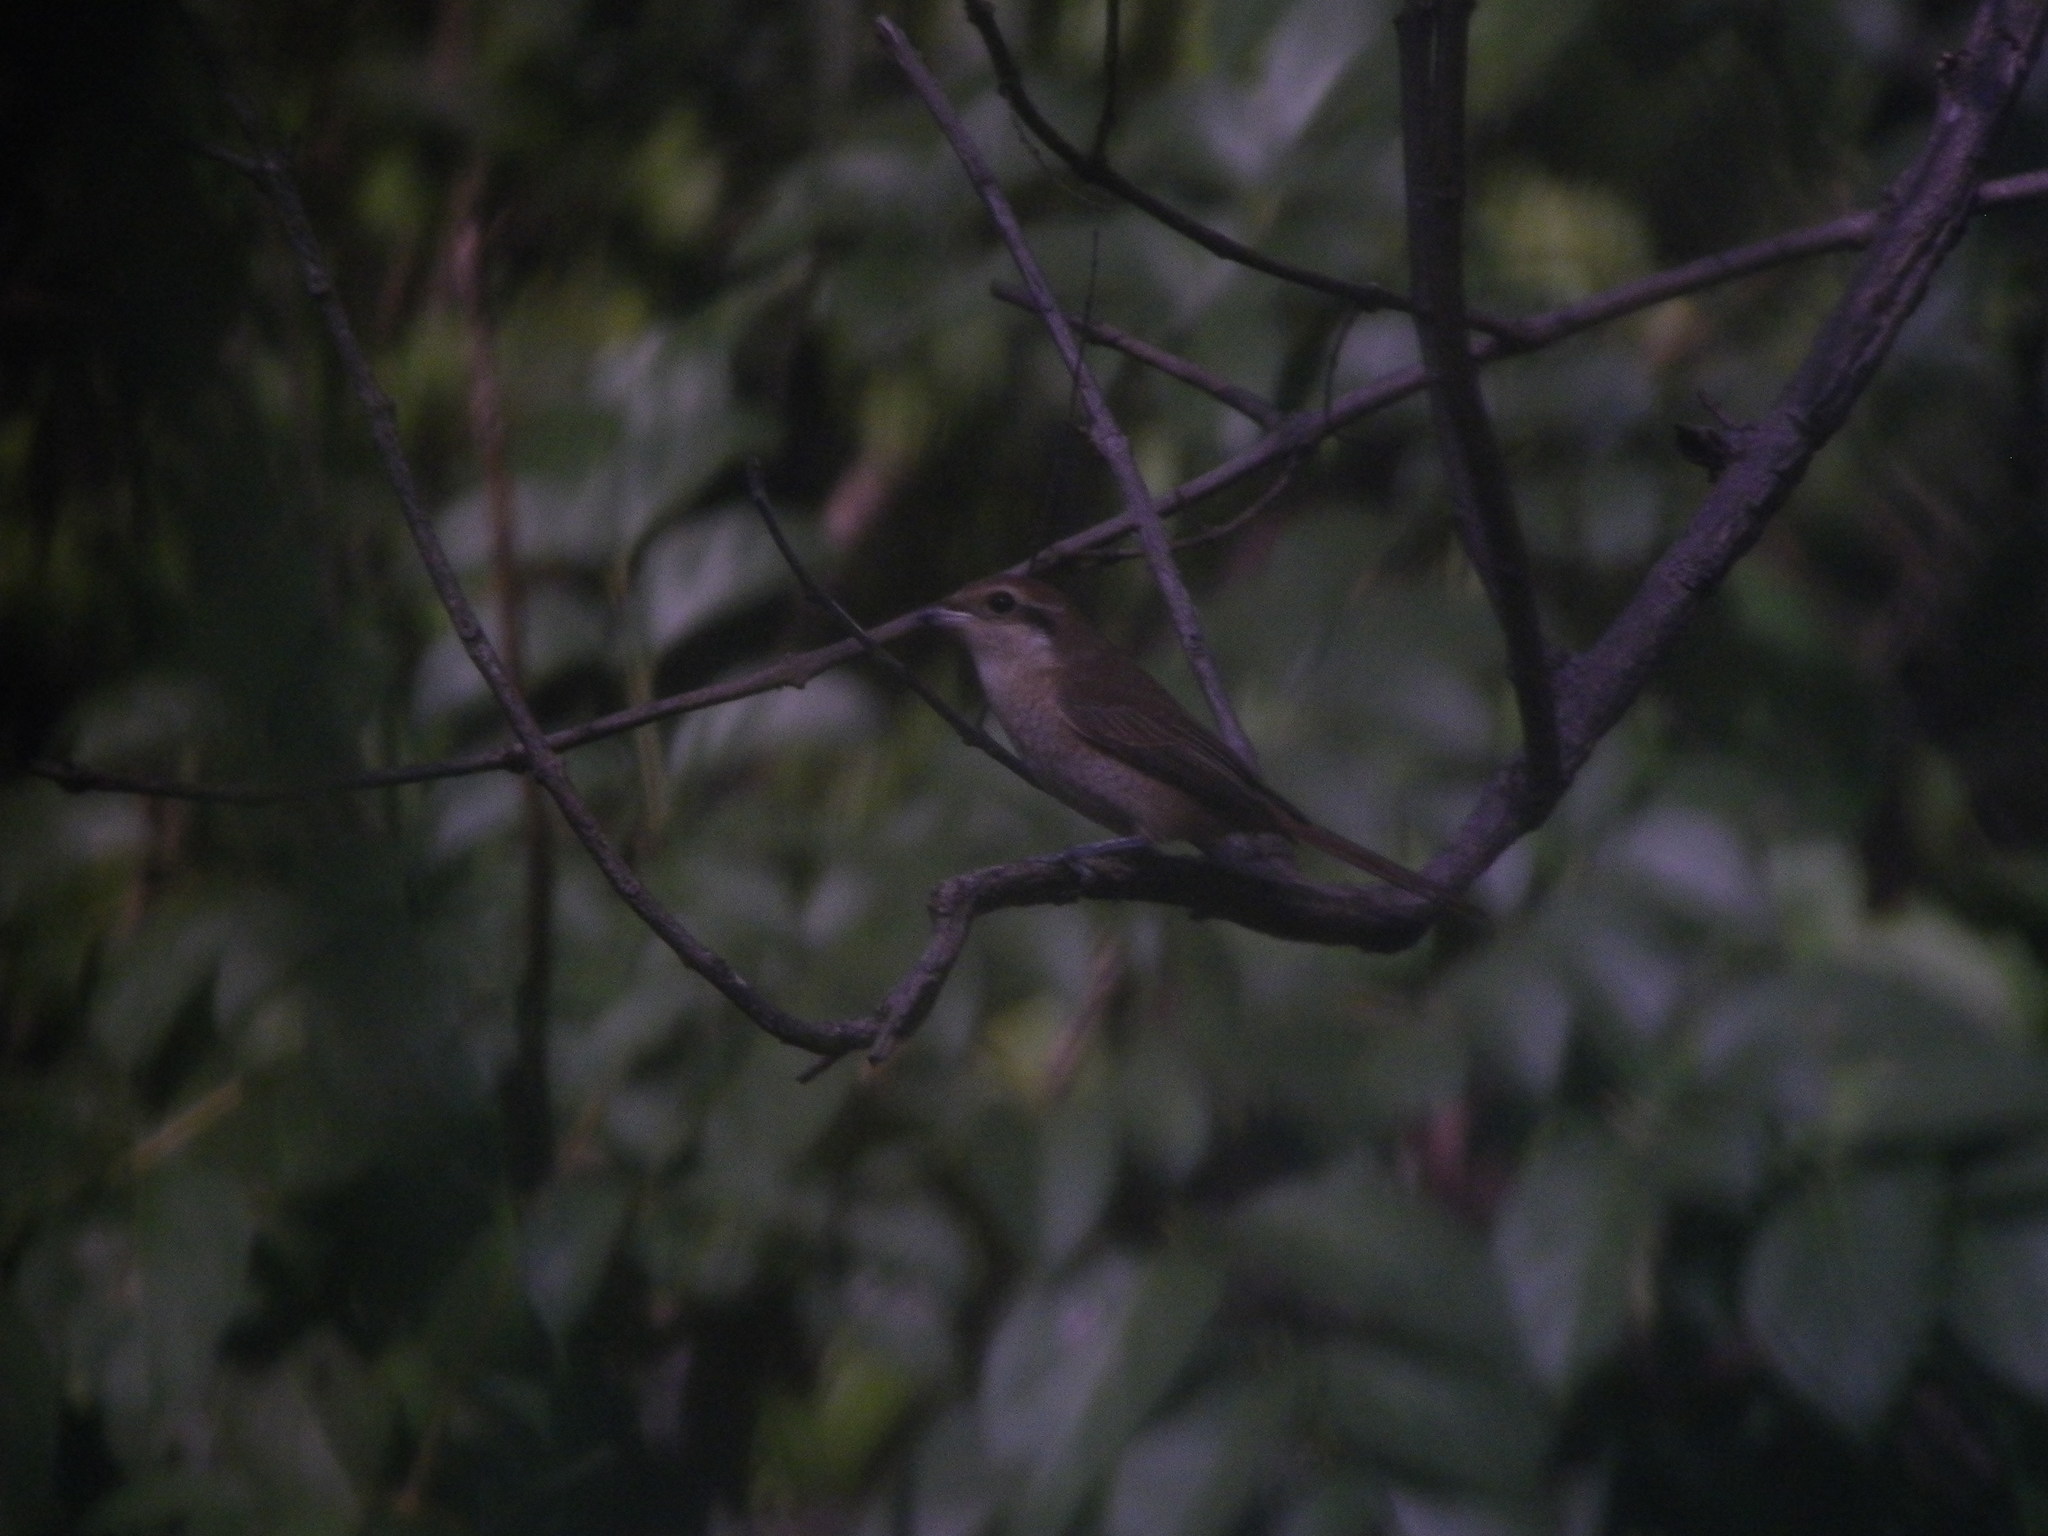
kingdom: Animalia
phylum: Chordata
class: Aves
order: Passeriformes
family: Laniidae
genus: Lanius
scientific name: Lanius cristatus
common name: Brown shrike
